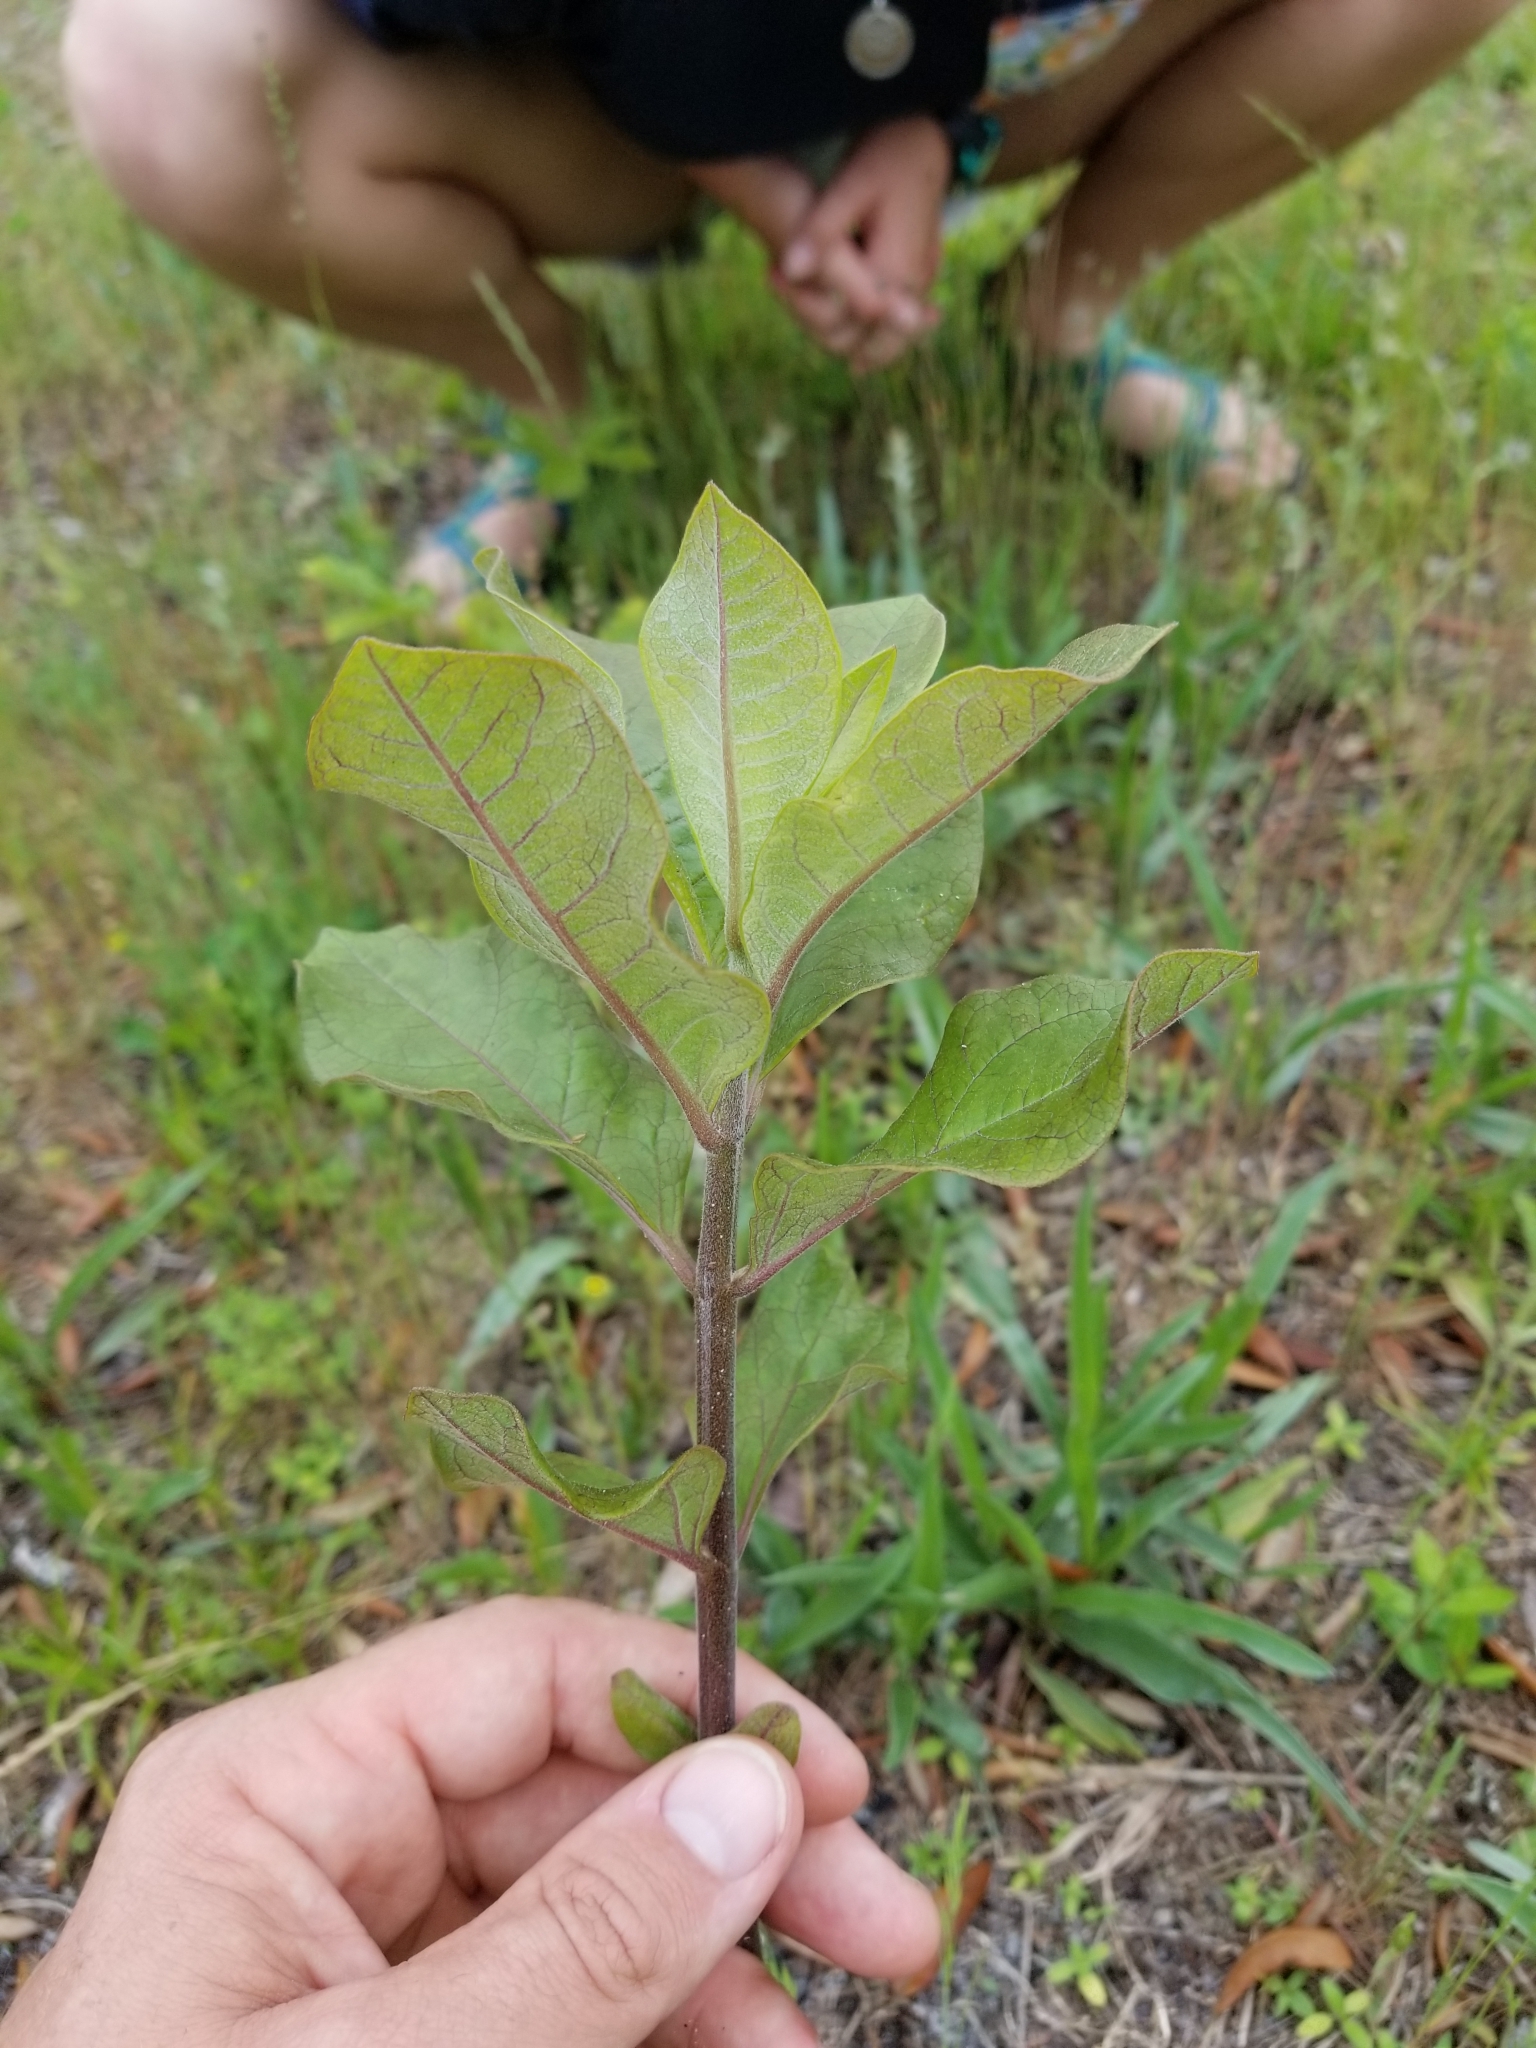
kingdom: Plantae
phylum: Tracheophyta
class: Magnoliopsida
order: Gentianales
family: Apocynaceae
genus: Asclepias
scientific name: Asclepias tomentosa
